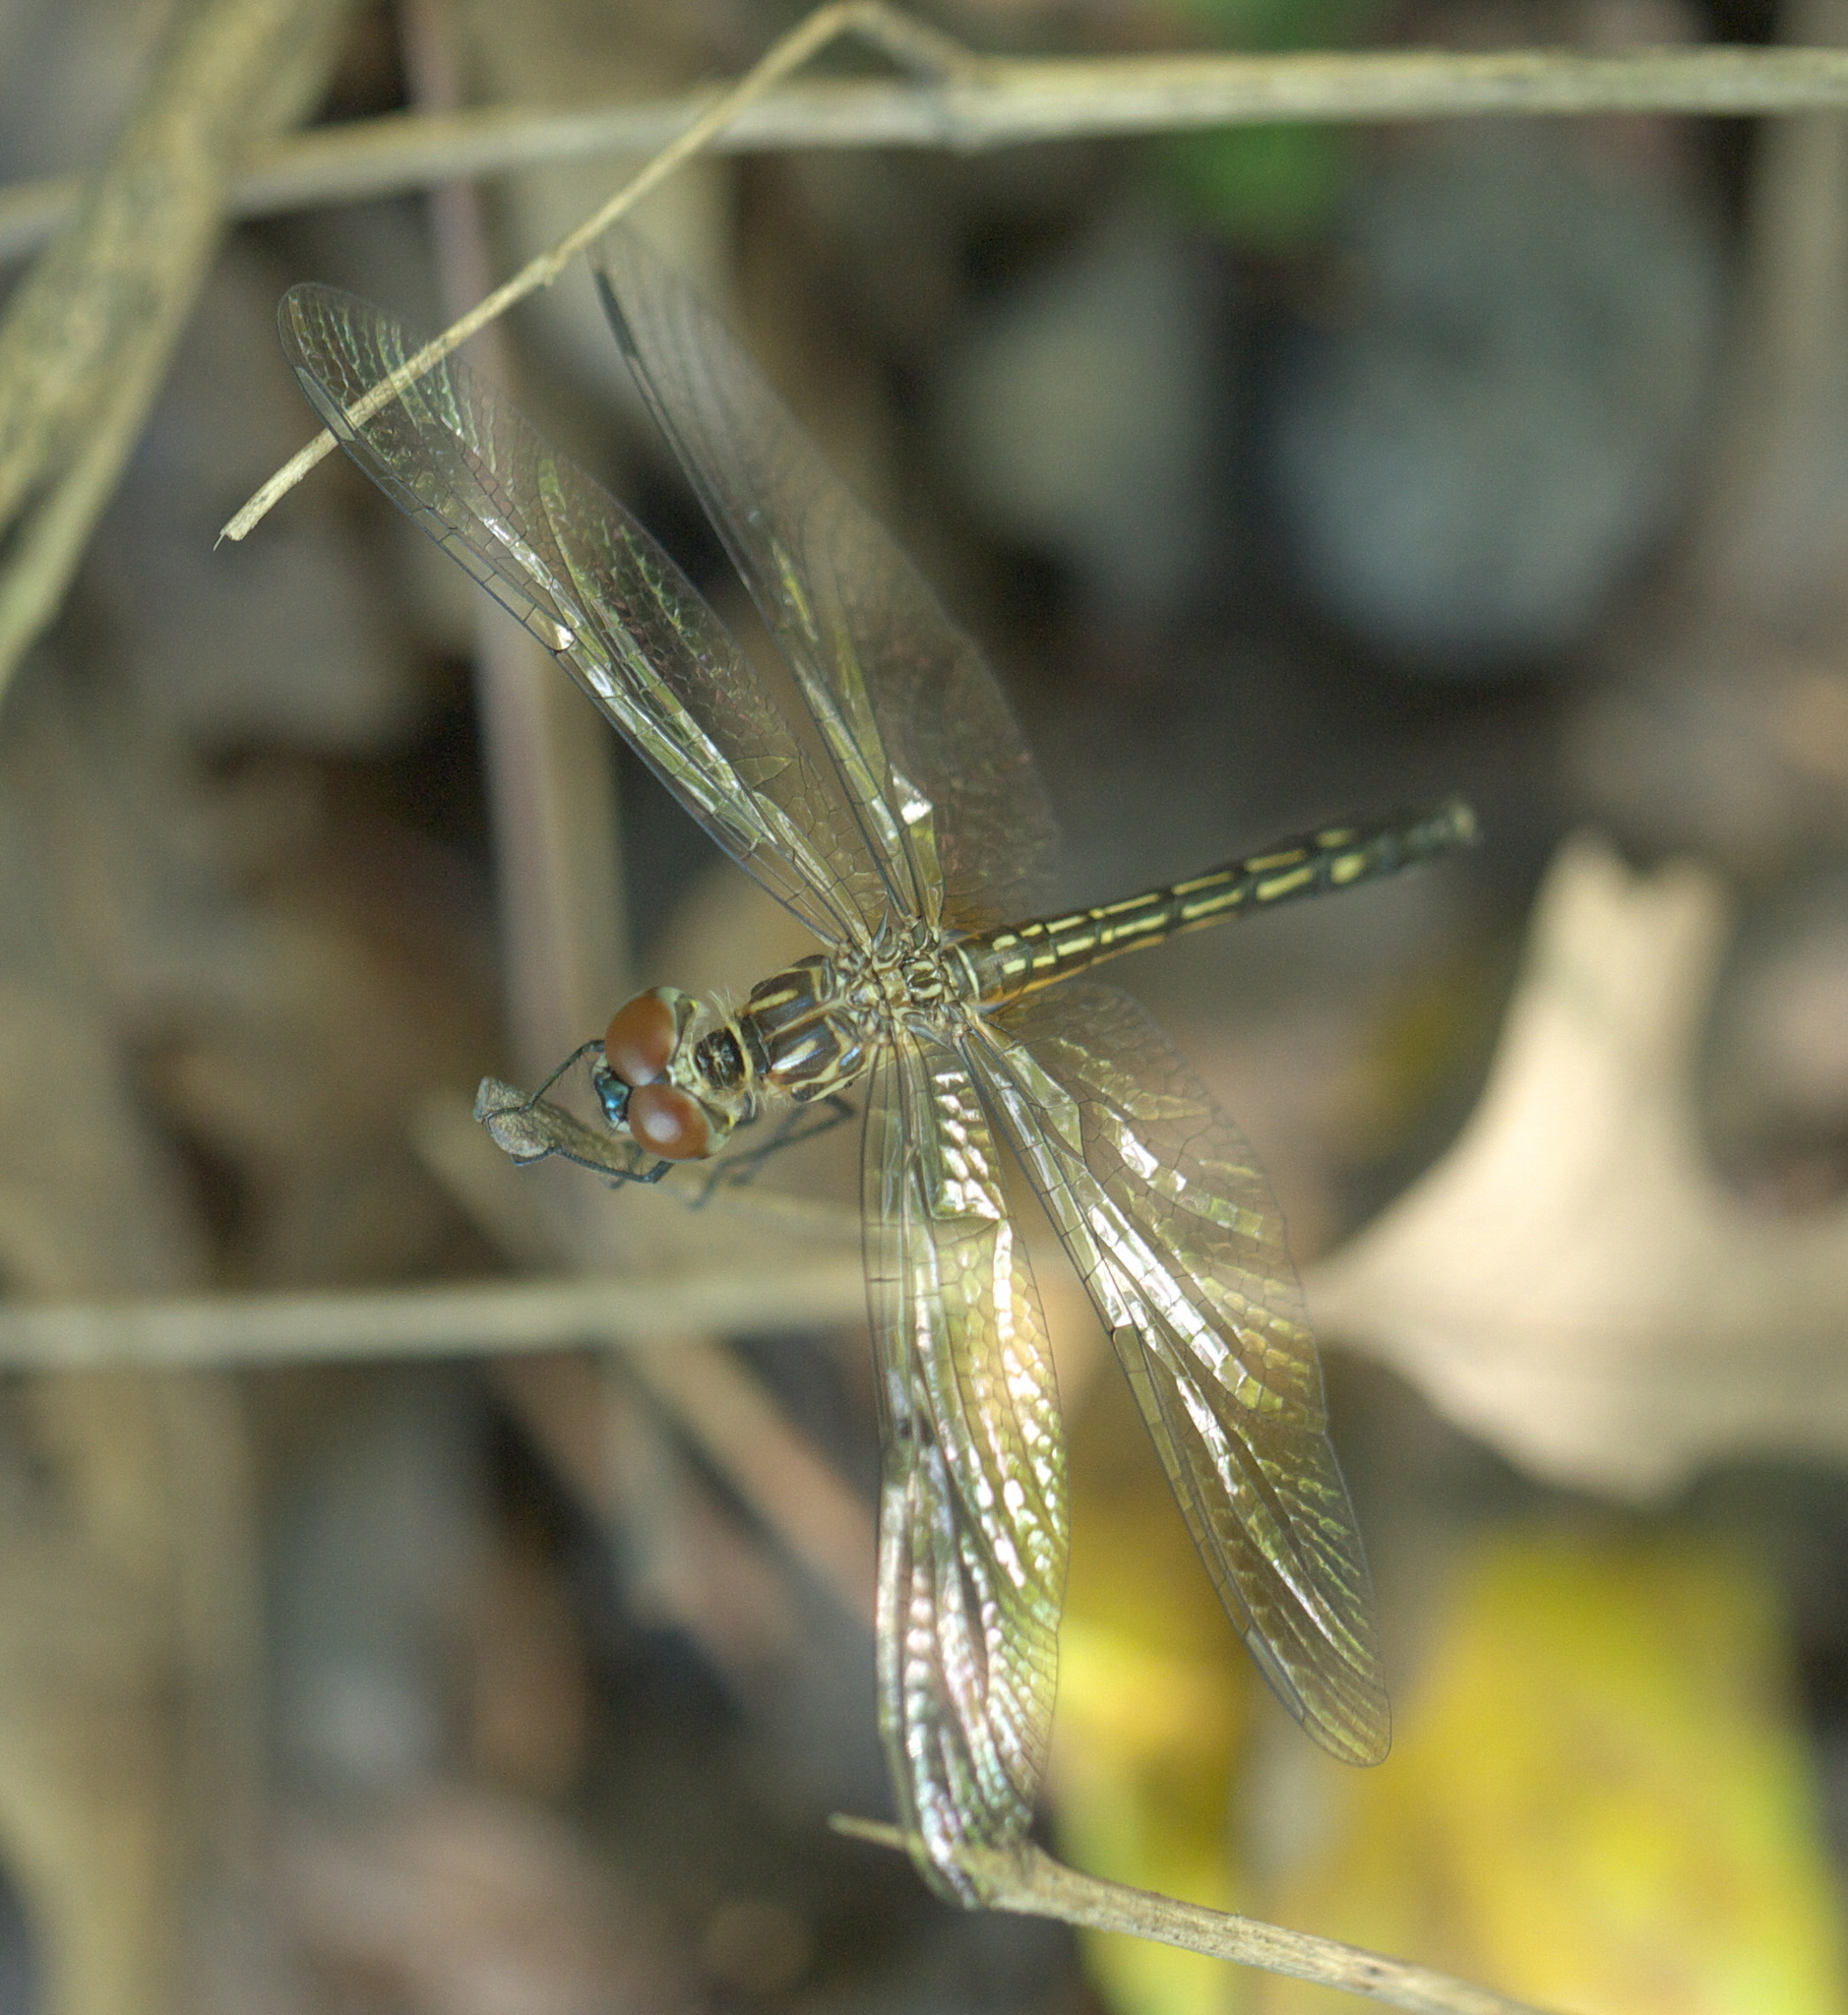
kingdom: Animalia
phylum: Arthropoda
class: Insecta
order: Odonata
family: Libellulidae
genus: Pachydiplax
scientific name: Pachydiplax longipennis
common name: Blue dasher
